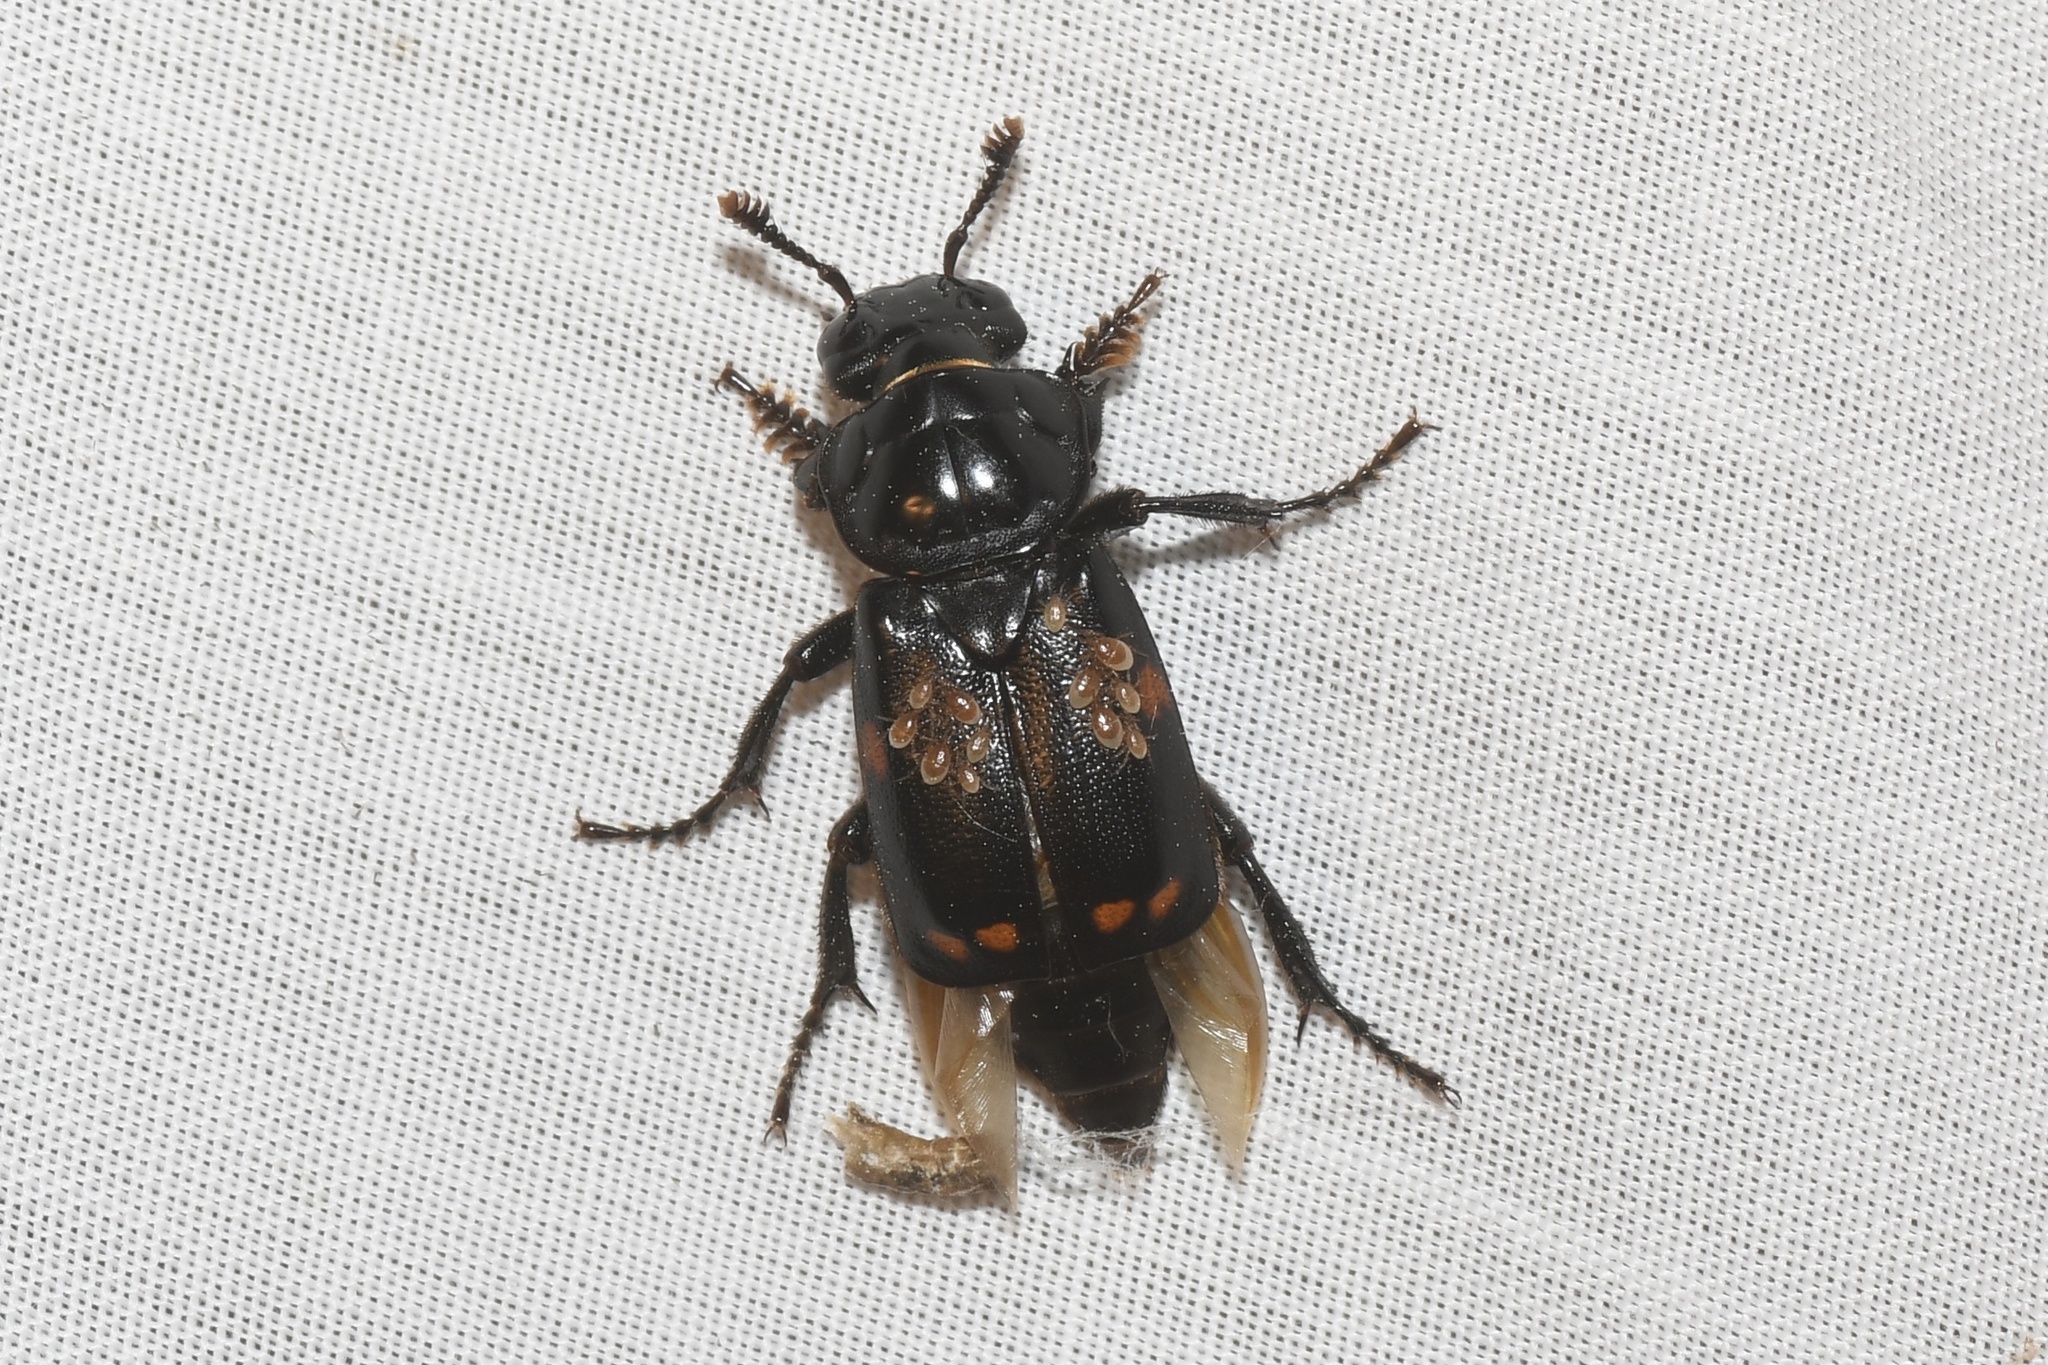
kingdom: Animalia
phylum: Arthropoda
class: Insecta
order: Coleoptera
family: Staphylinidae
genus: Nicrophorus
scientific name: Nicrophorus pustulatus
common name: Pustulated carrion beetle
